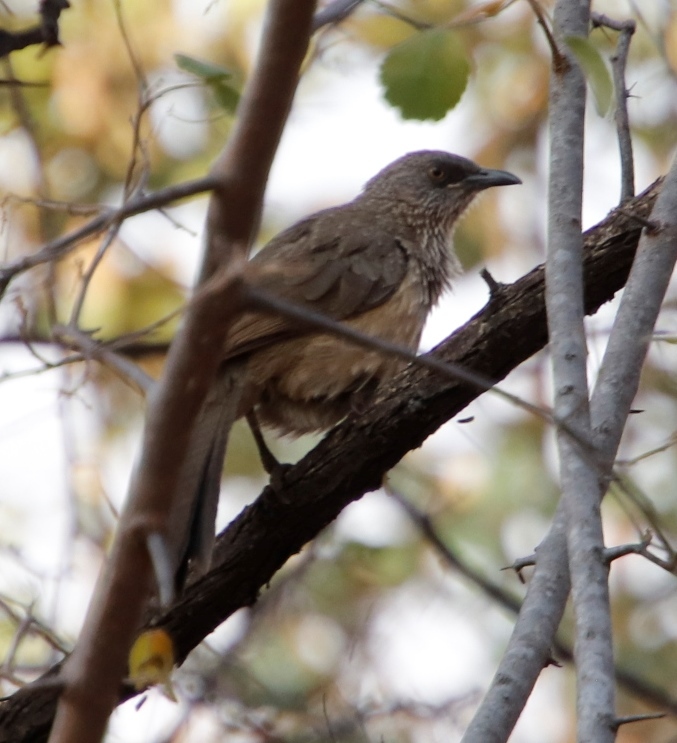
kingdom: Animalia
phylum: Chordata
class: Aves
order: Passeriformes
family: Leiothrichidae
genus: Turdoides
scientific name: Turdoides jardineii
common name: Arrow-marked babbler
